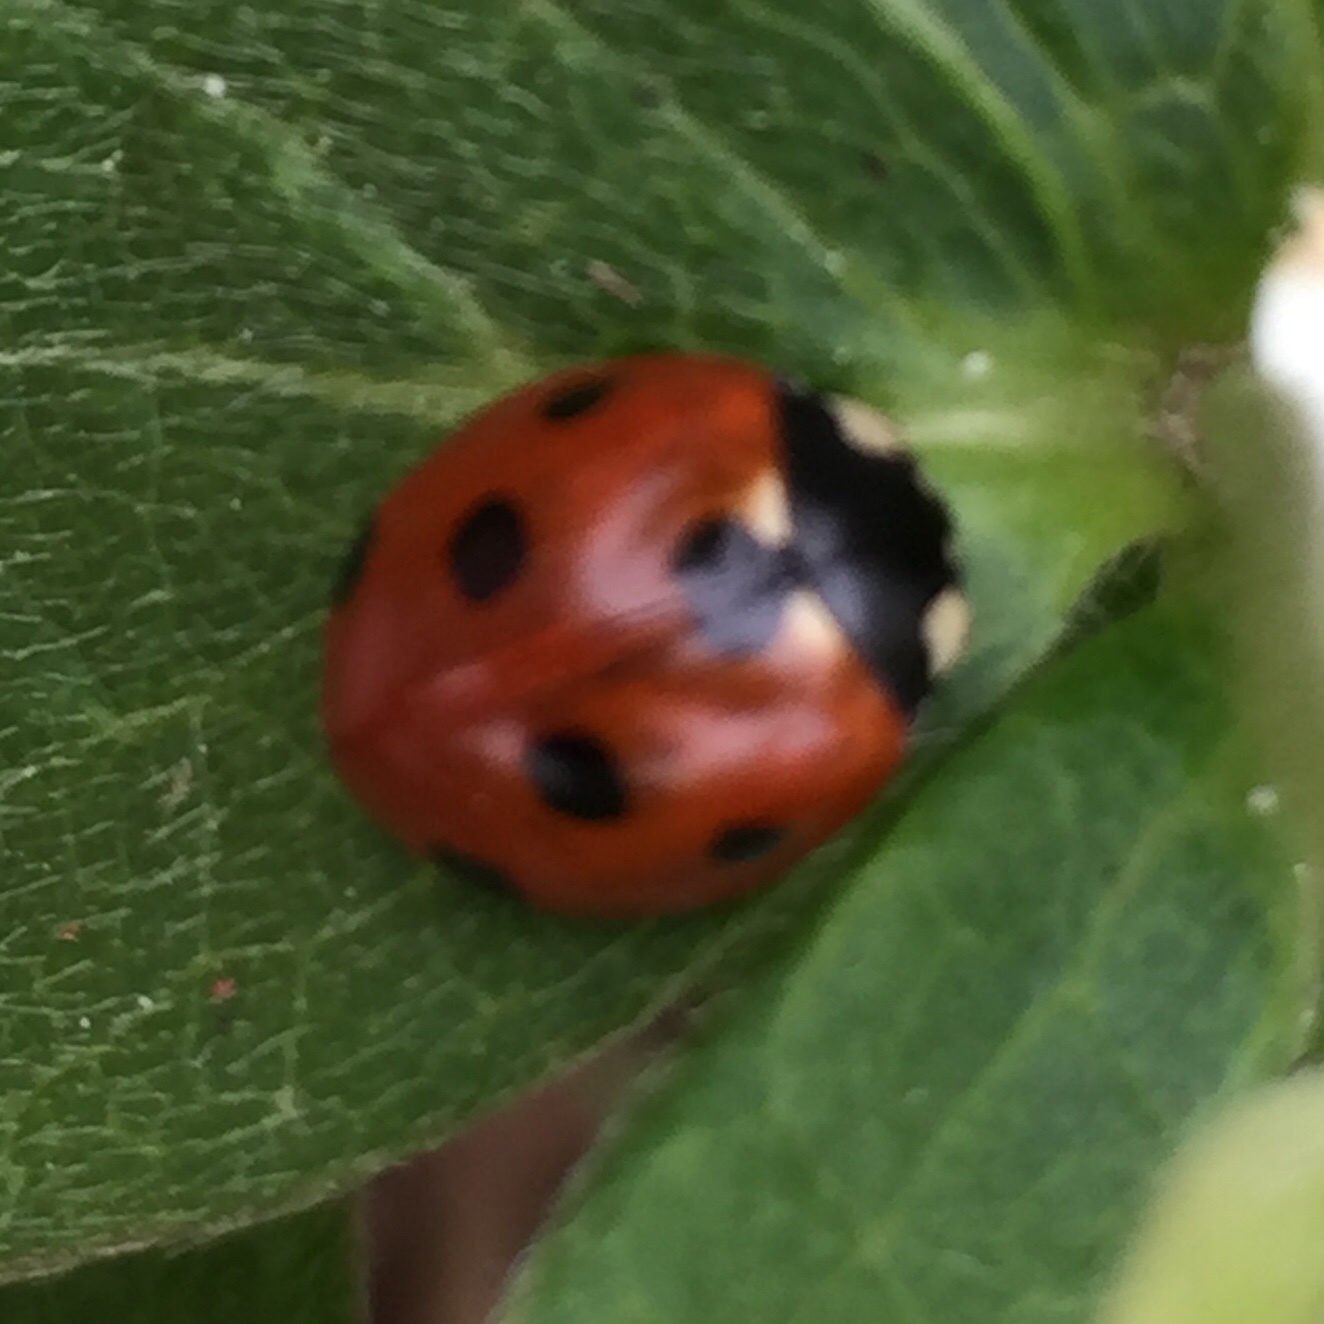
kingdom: Animalia
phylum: Arthropoda
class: Insecta
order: Coleoptera
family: Coccinellidae
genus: Coccinella
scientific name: Coccinella septempunctata
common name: Sevenspotted lady beetle
